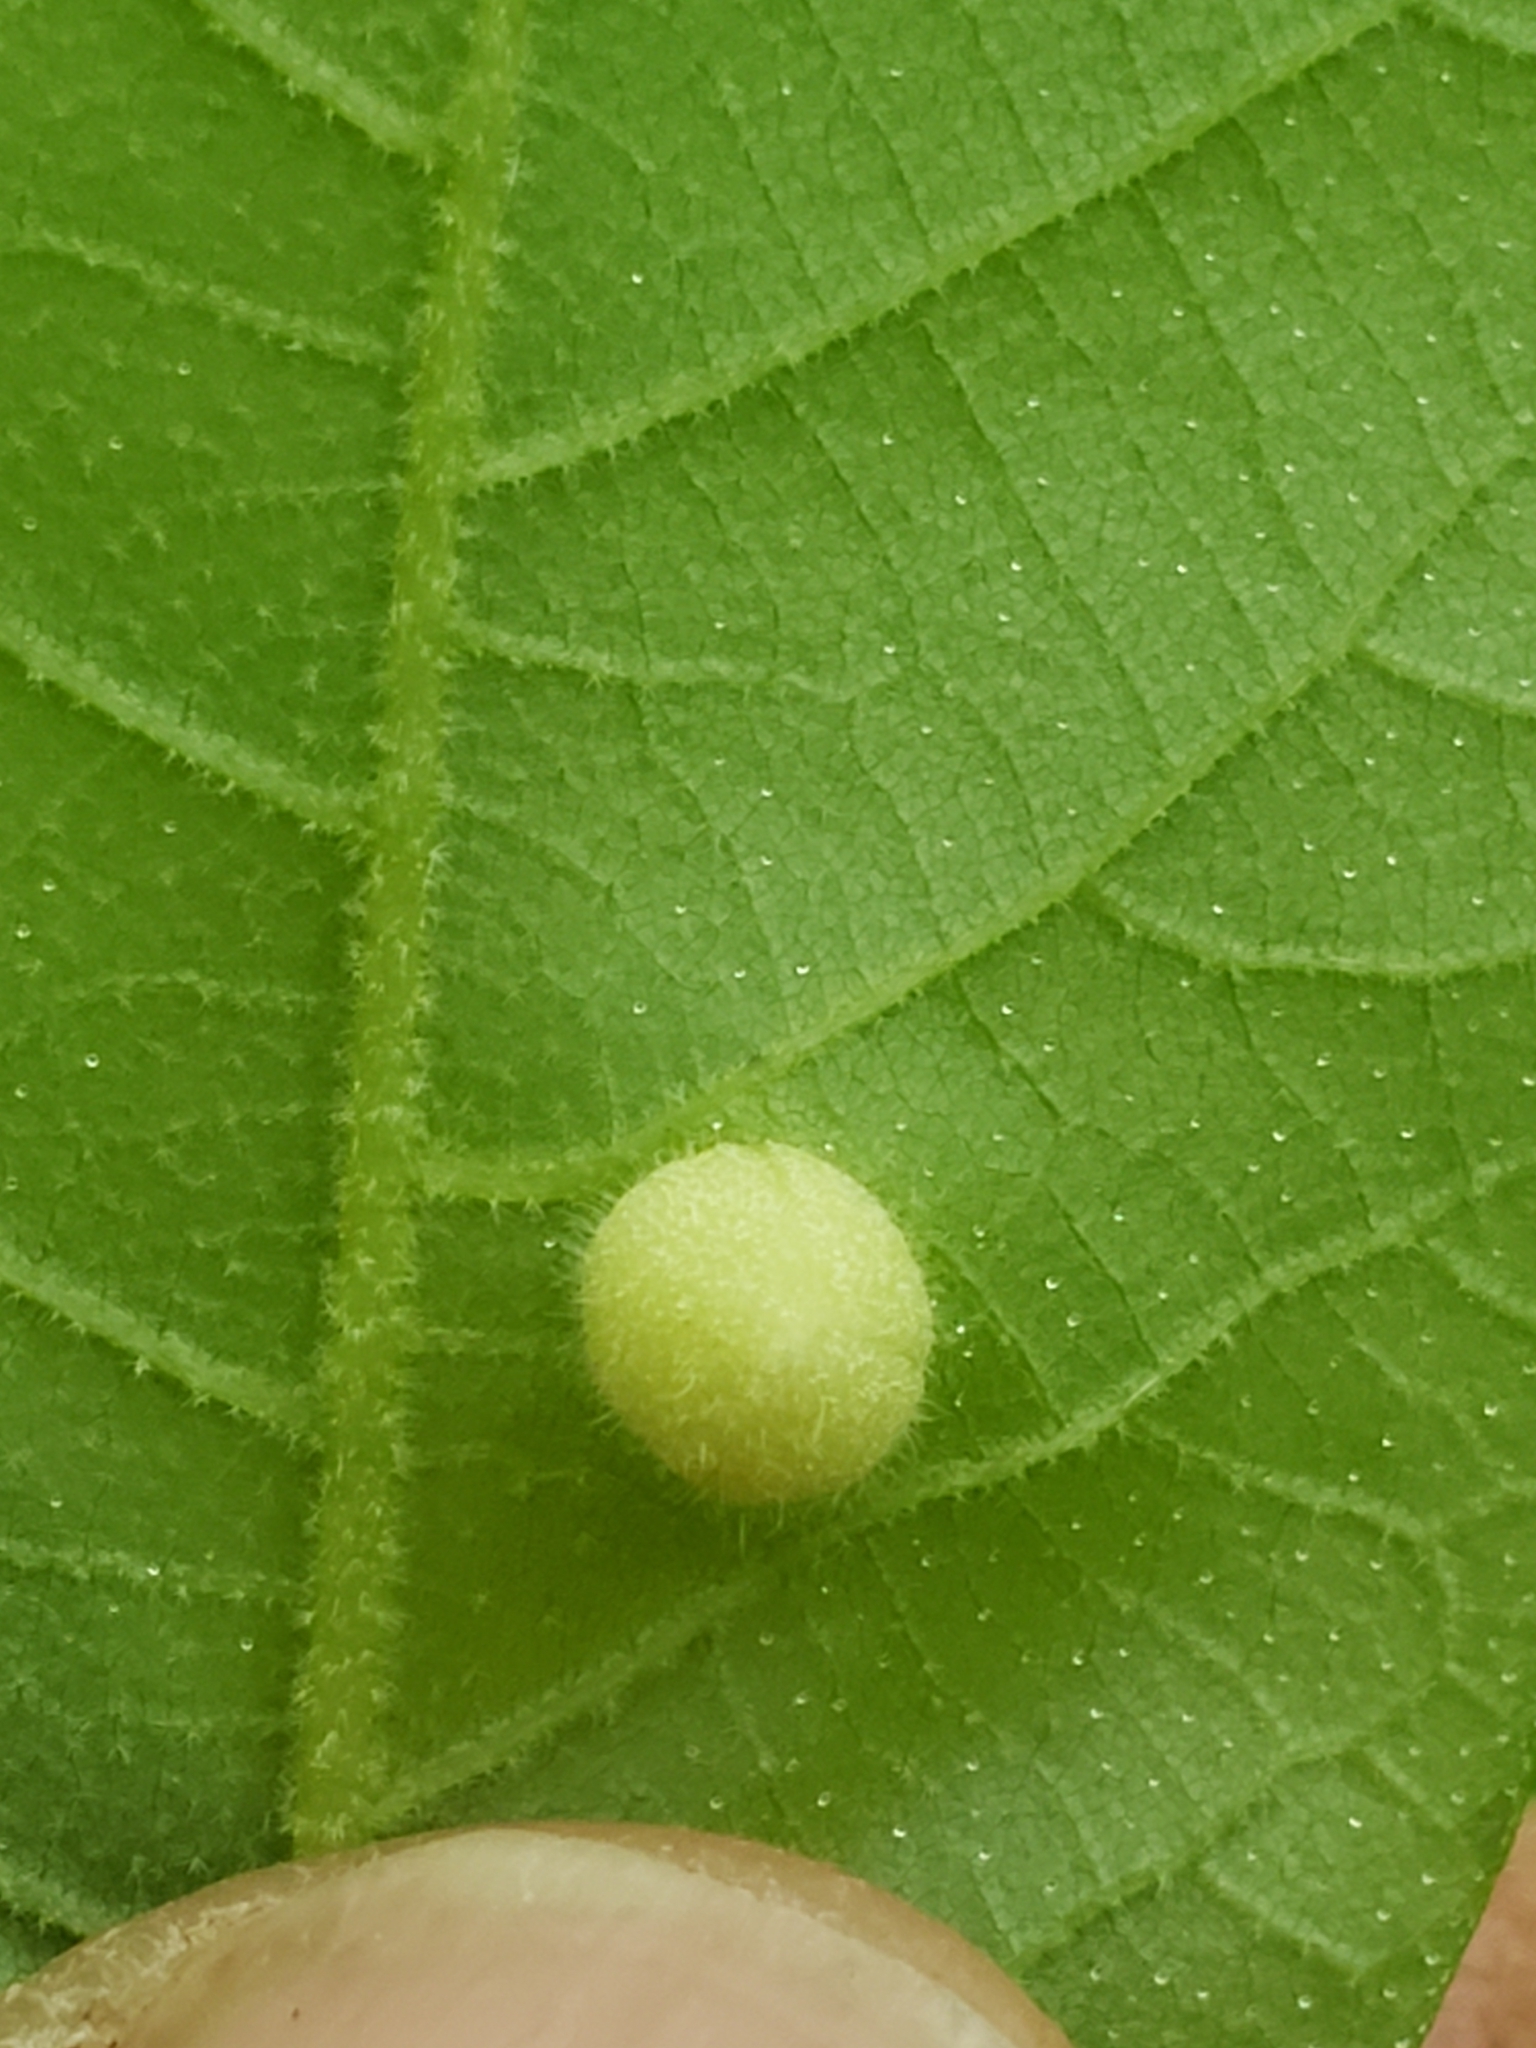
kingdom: Animalia
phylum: Arthropoda
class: Insecta
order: Hemiptera
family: Phylloxeridae
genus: Phylloxera
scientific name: Phylloxera caryae-avellana
